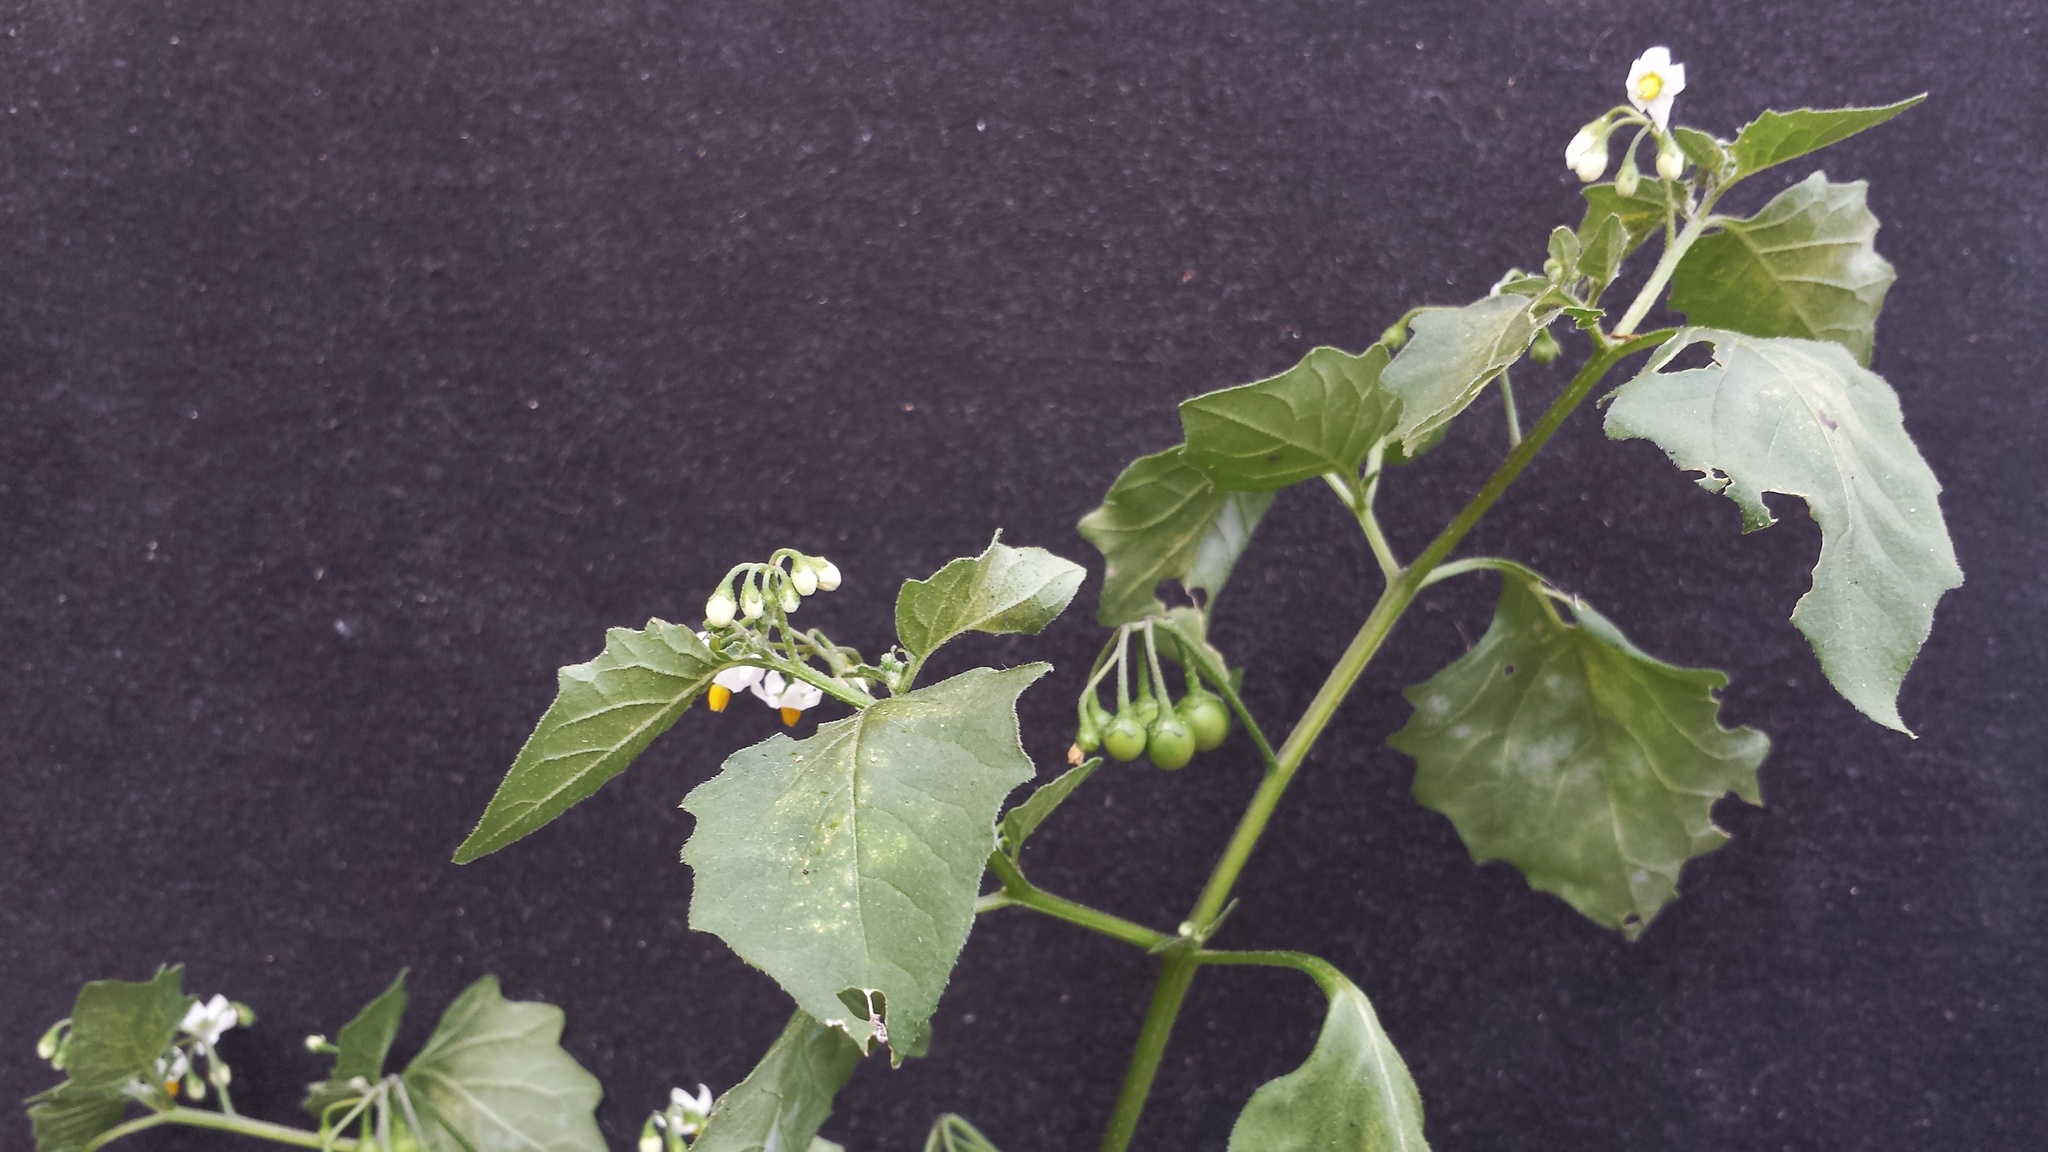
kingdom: Plantae
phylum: Tracheophyta
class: Magnoliopsida
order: Solanales
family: Solanaceae
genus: Solanum
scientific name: Solanum nigrum
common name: Black nightshade
